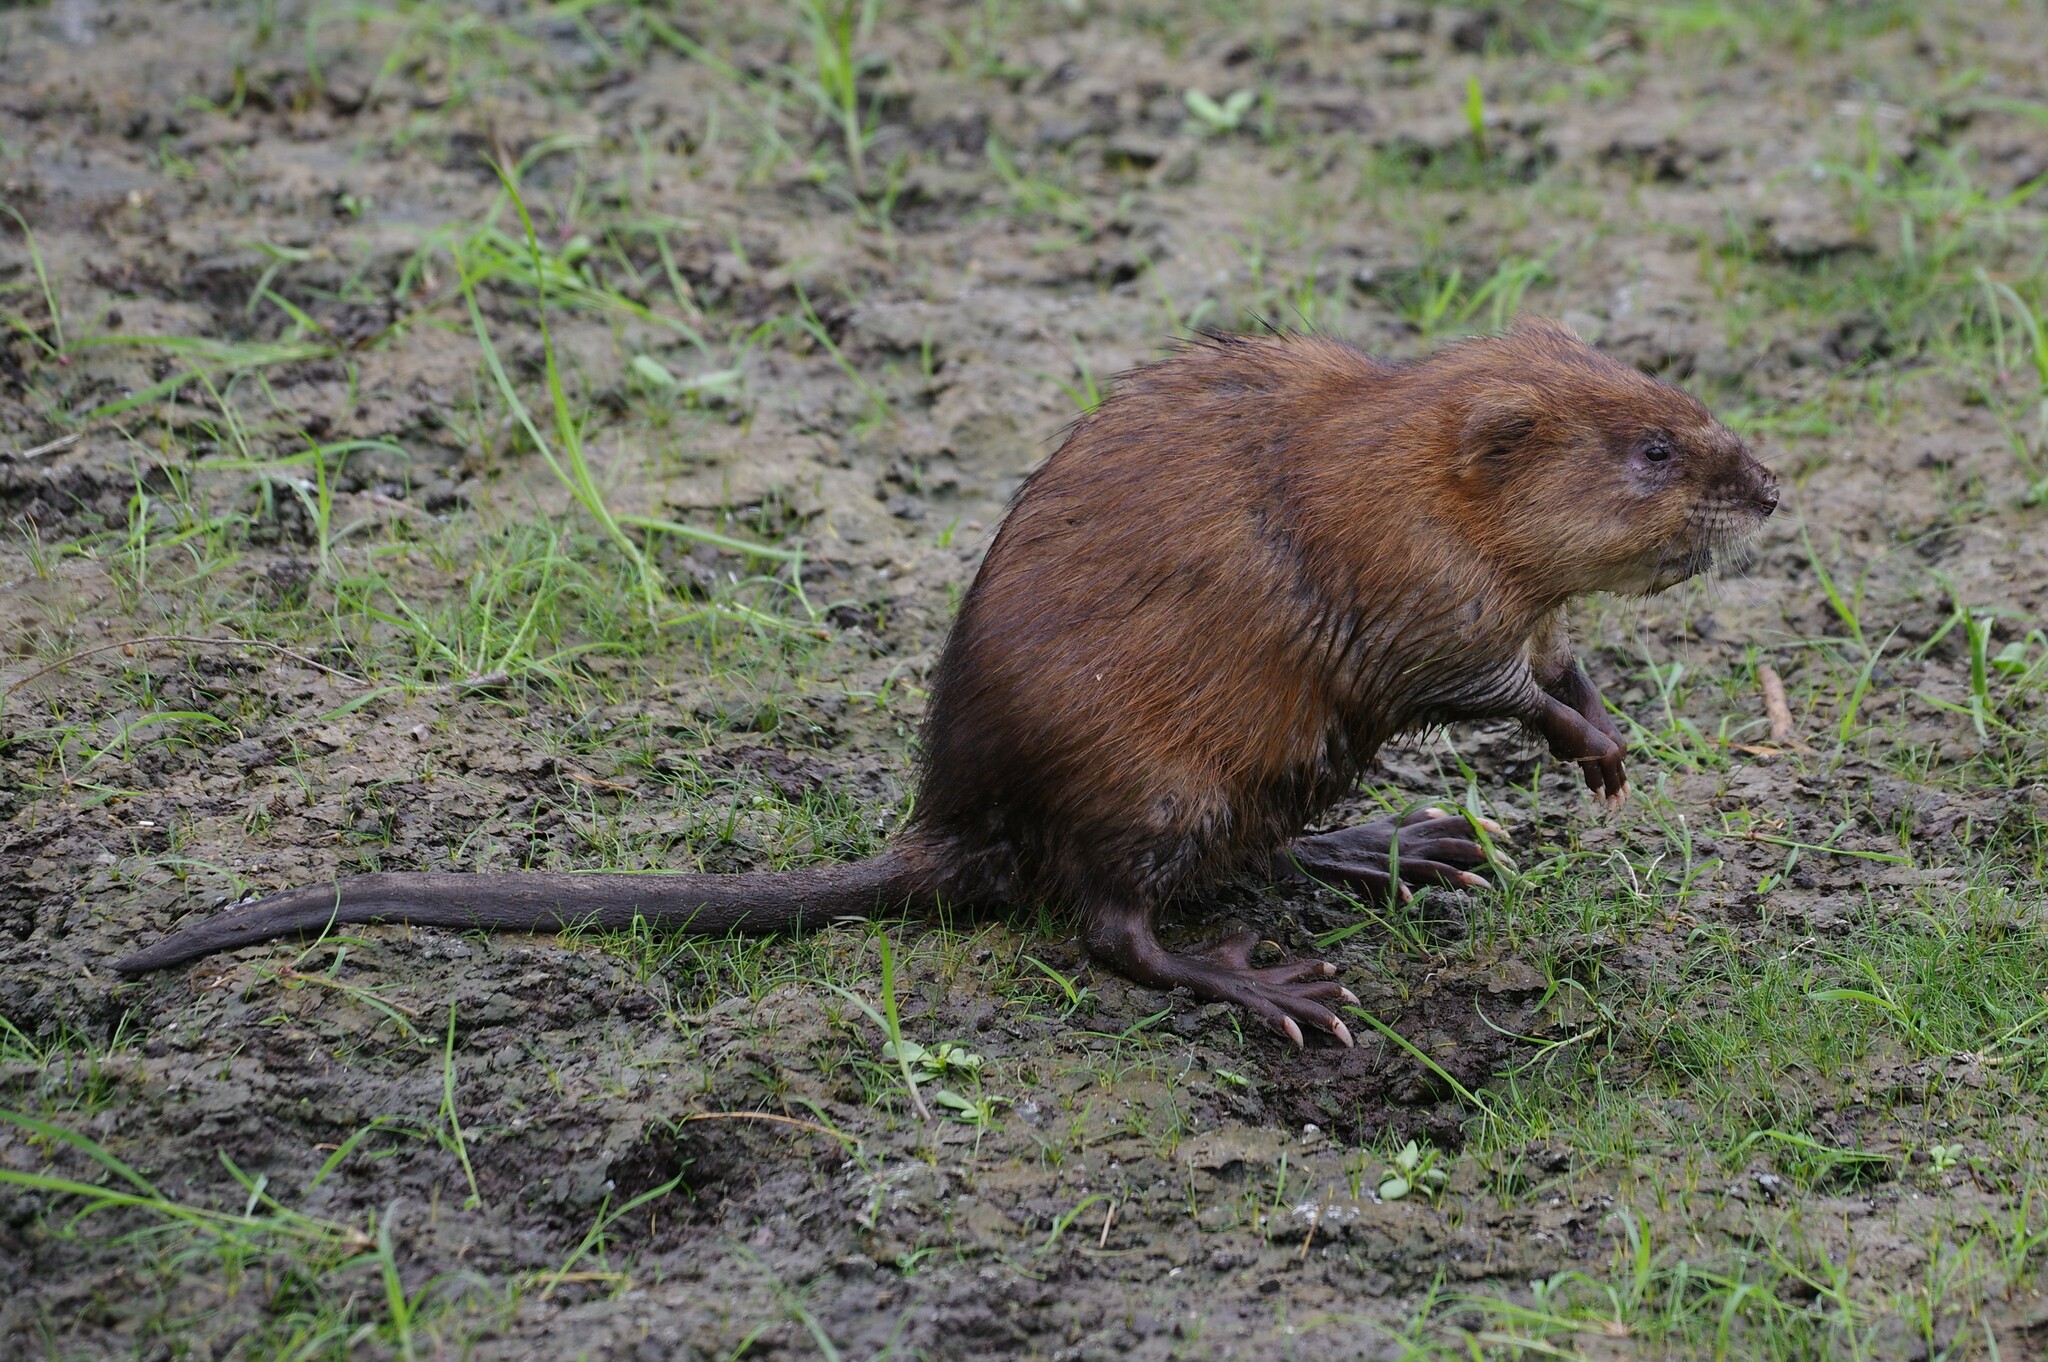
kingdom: Animalia
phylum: Chordata
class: Mammalia
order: Rodentia
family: Cricetidae
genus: Ondatra
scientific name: Ondatra zibethicus
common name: Muskrat
